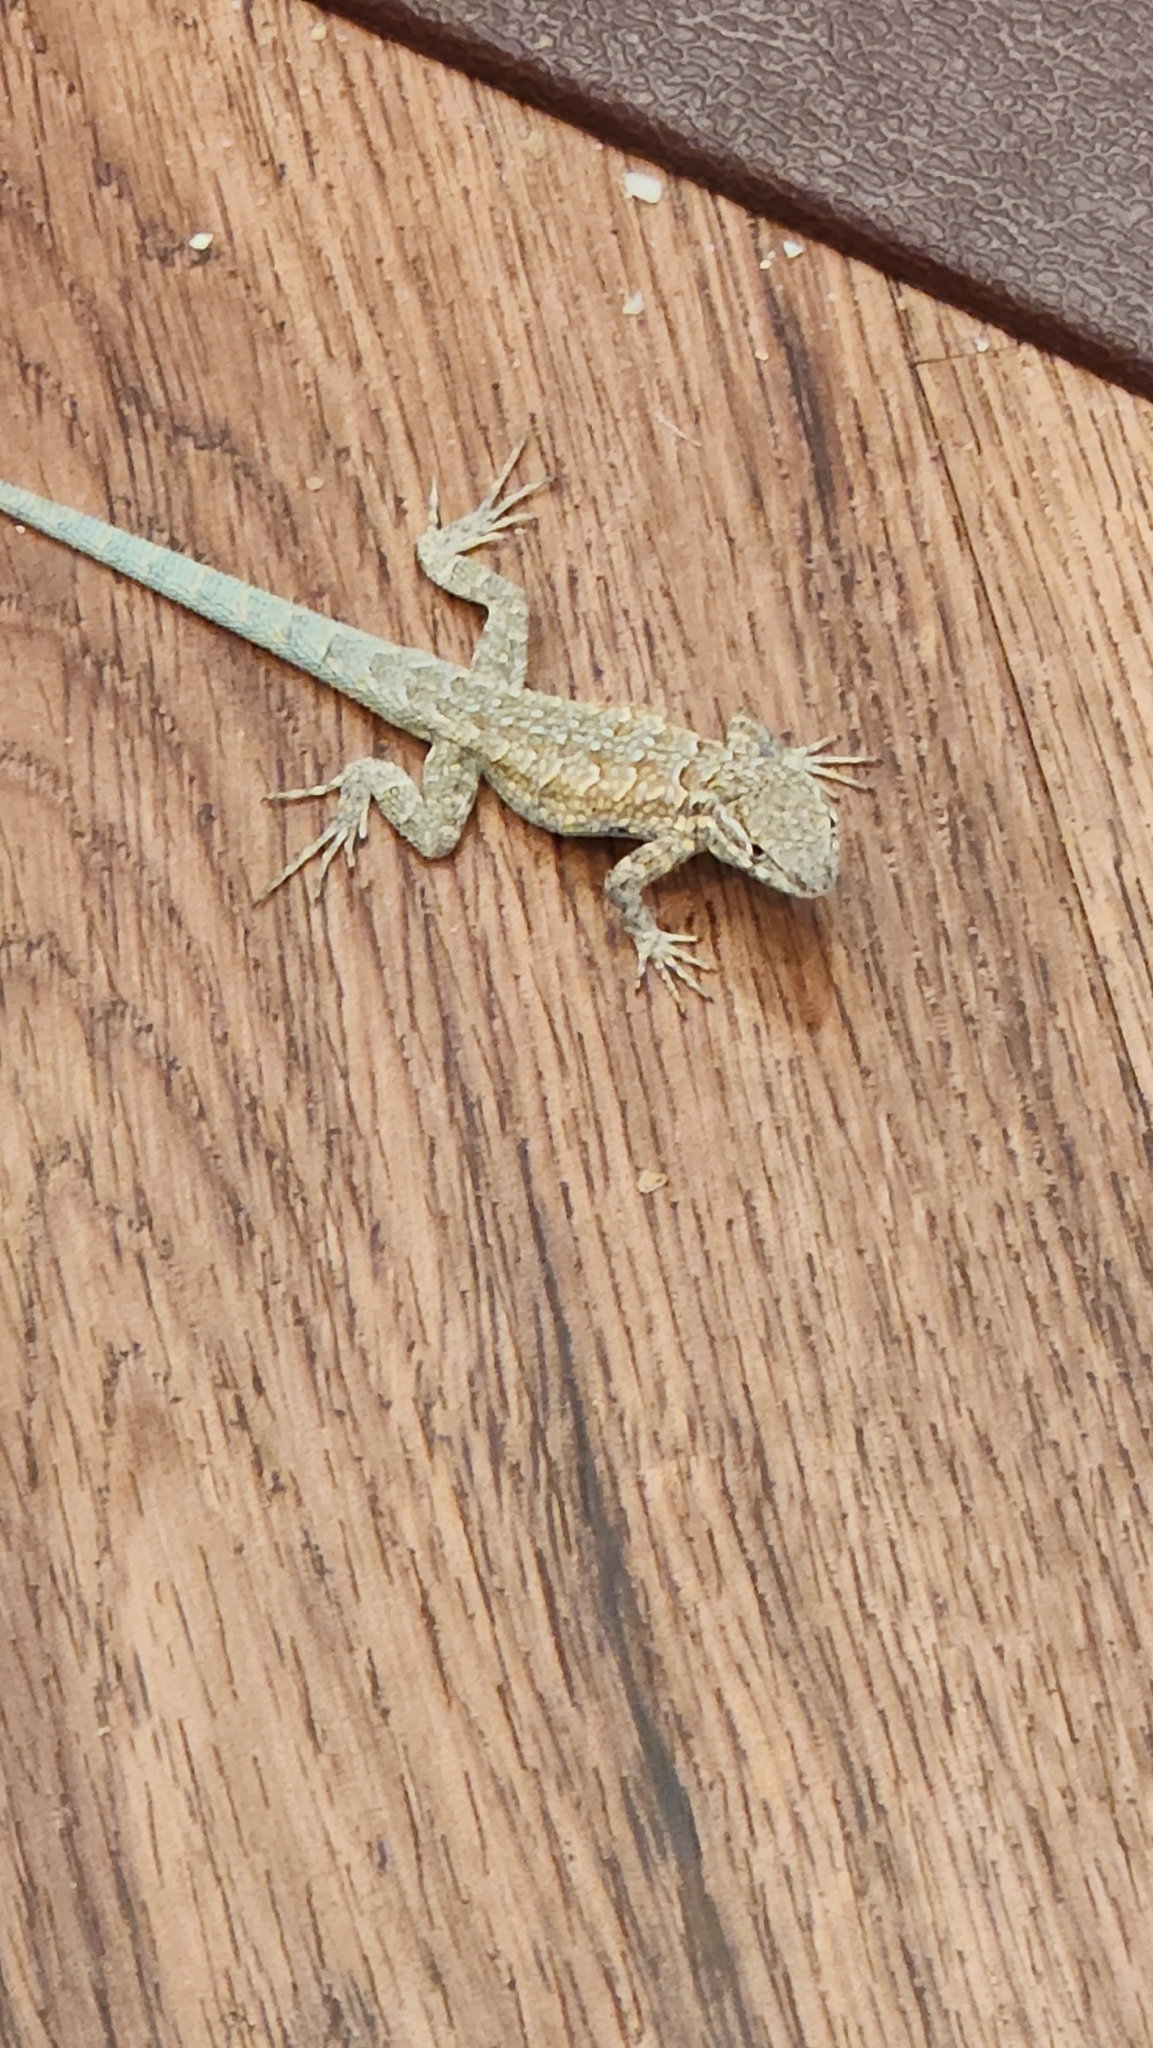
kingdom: Animalia
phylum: Chordata
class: Squamata
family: Phrynosomatidae
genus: Uta
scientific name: Uta stansburiana
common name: Side-blotched lizard
